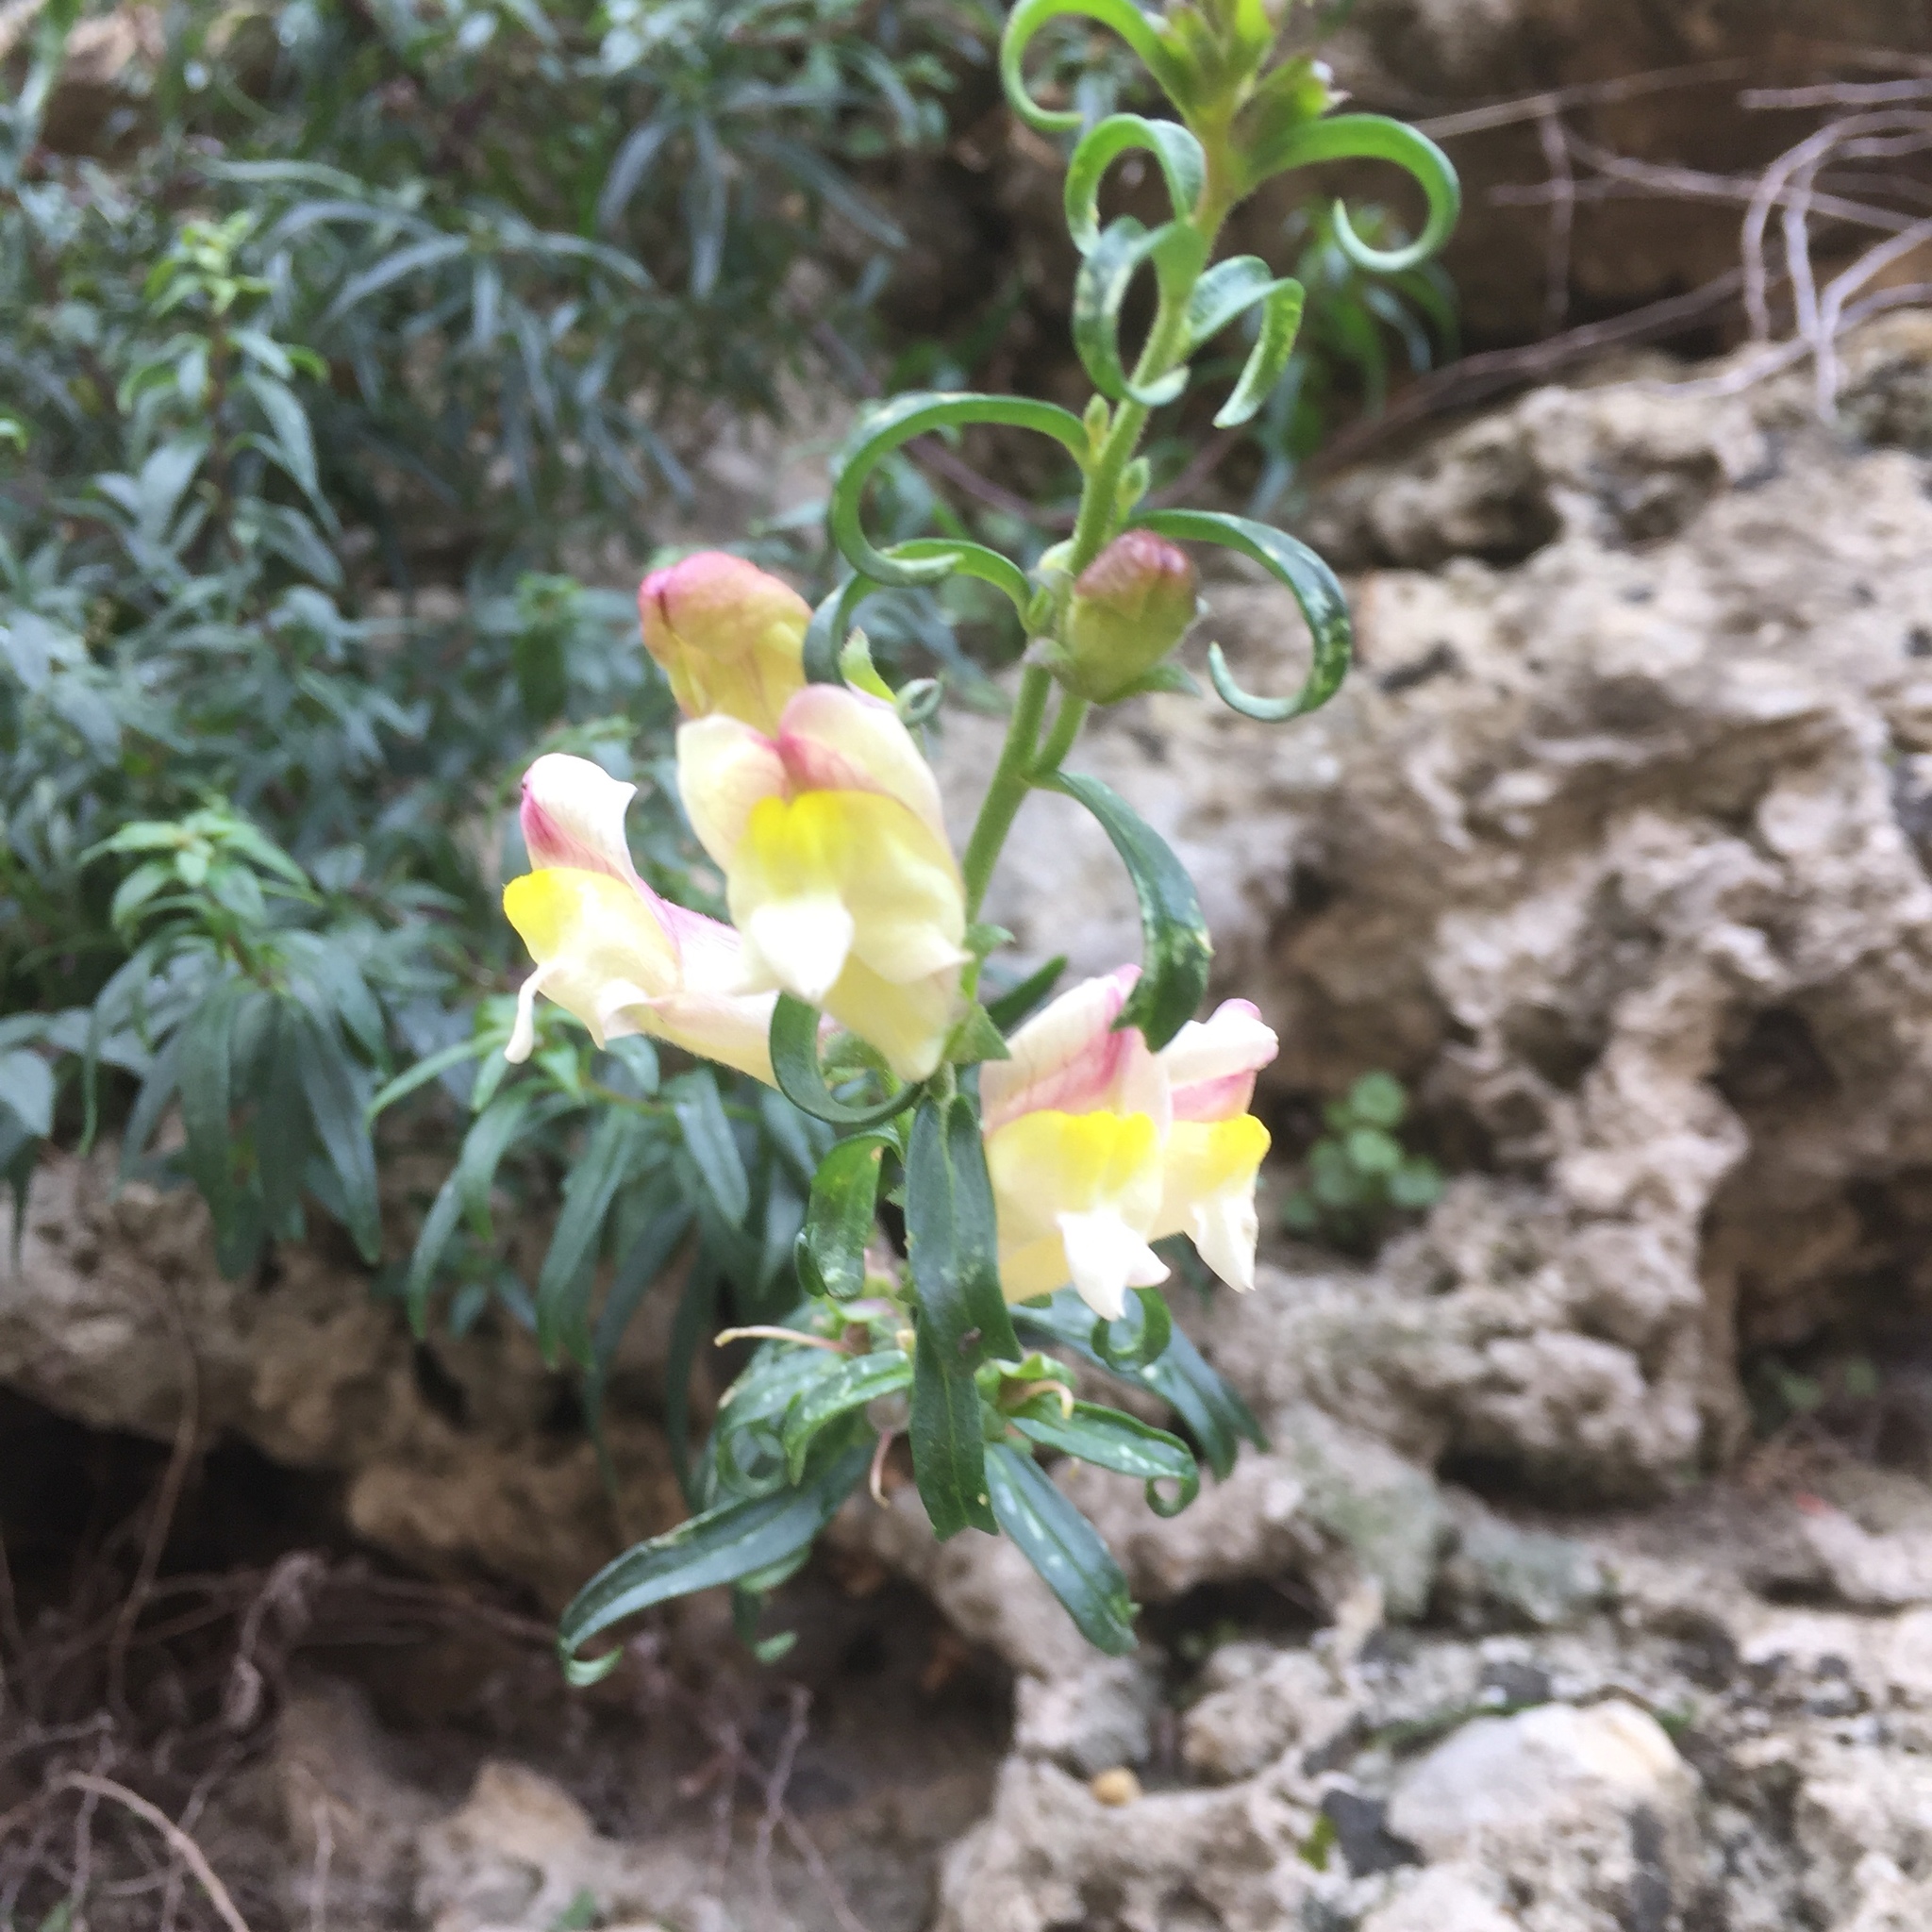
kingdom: Plantae
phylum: Tracheophyta
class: Magnoliopsida
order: Lamiales
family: Plantaginaceae
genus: Antirrhinum
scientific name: Antirrhinum siculum
